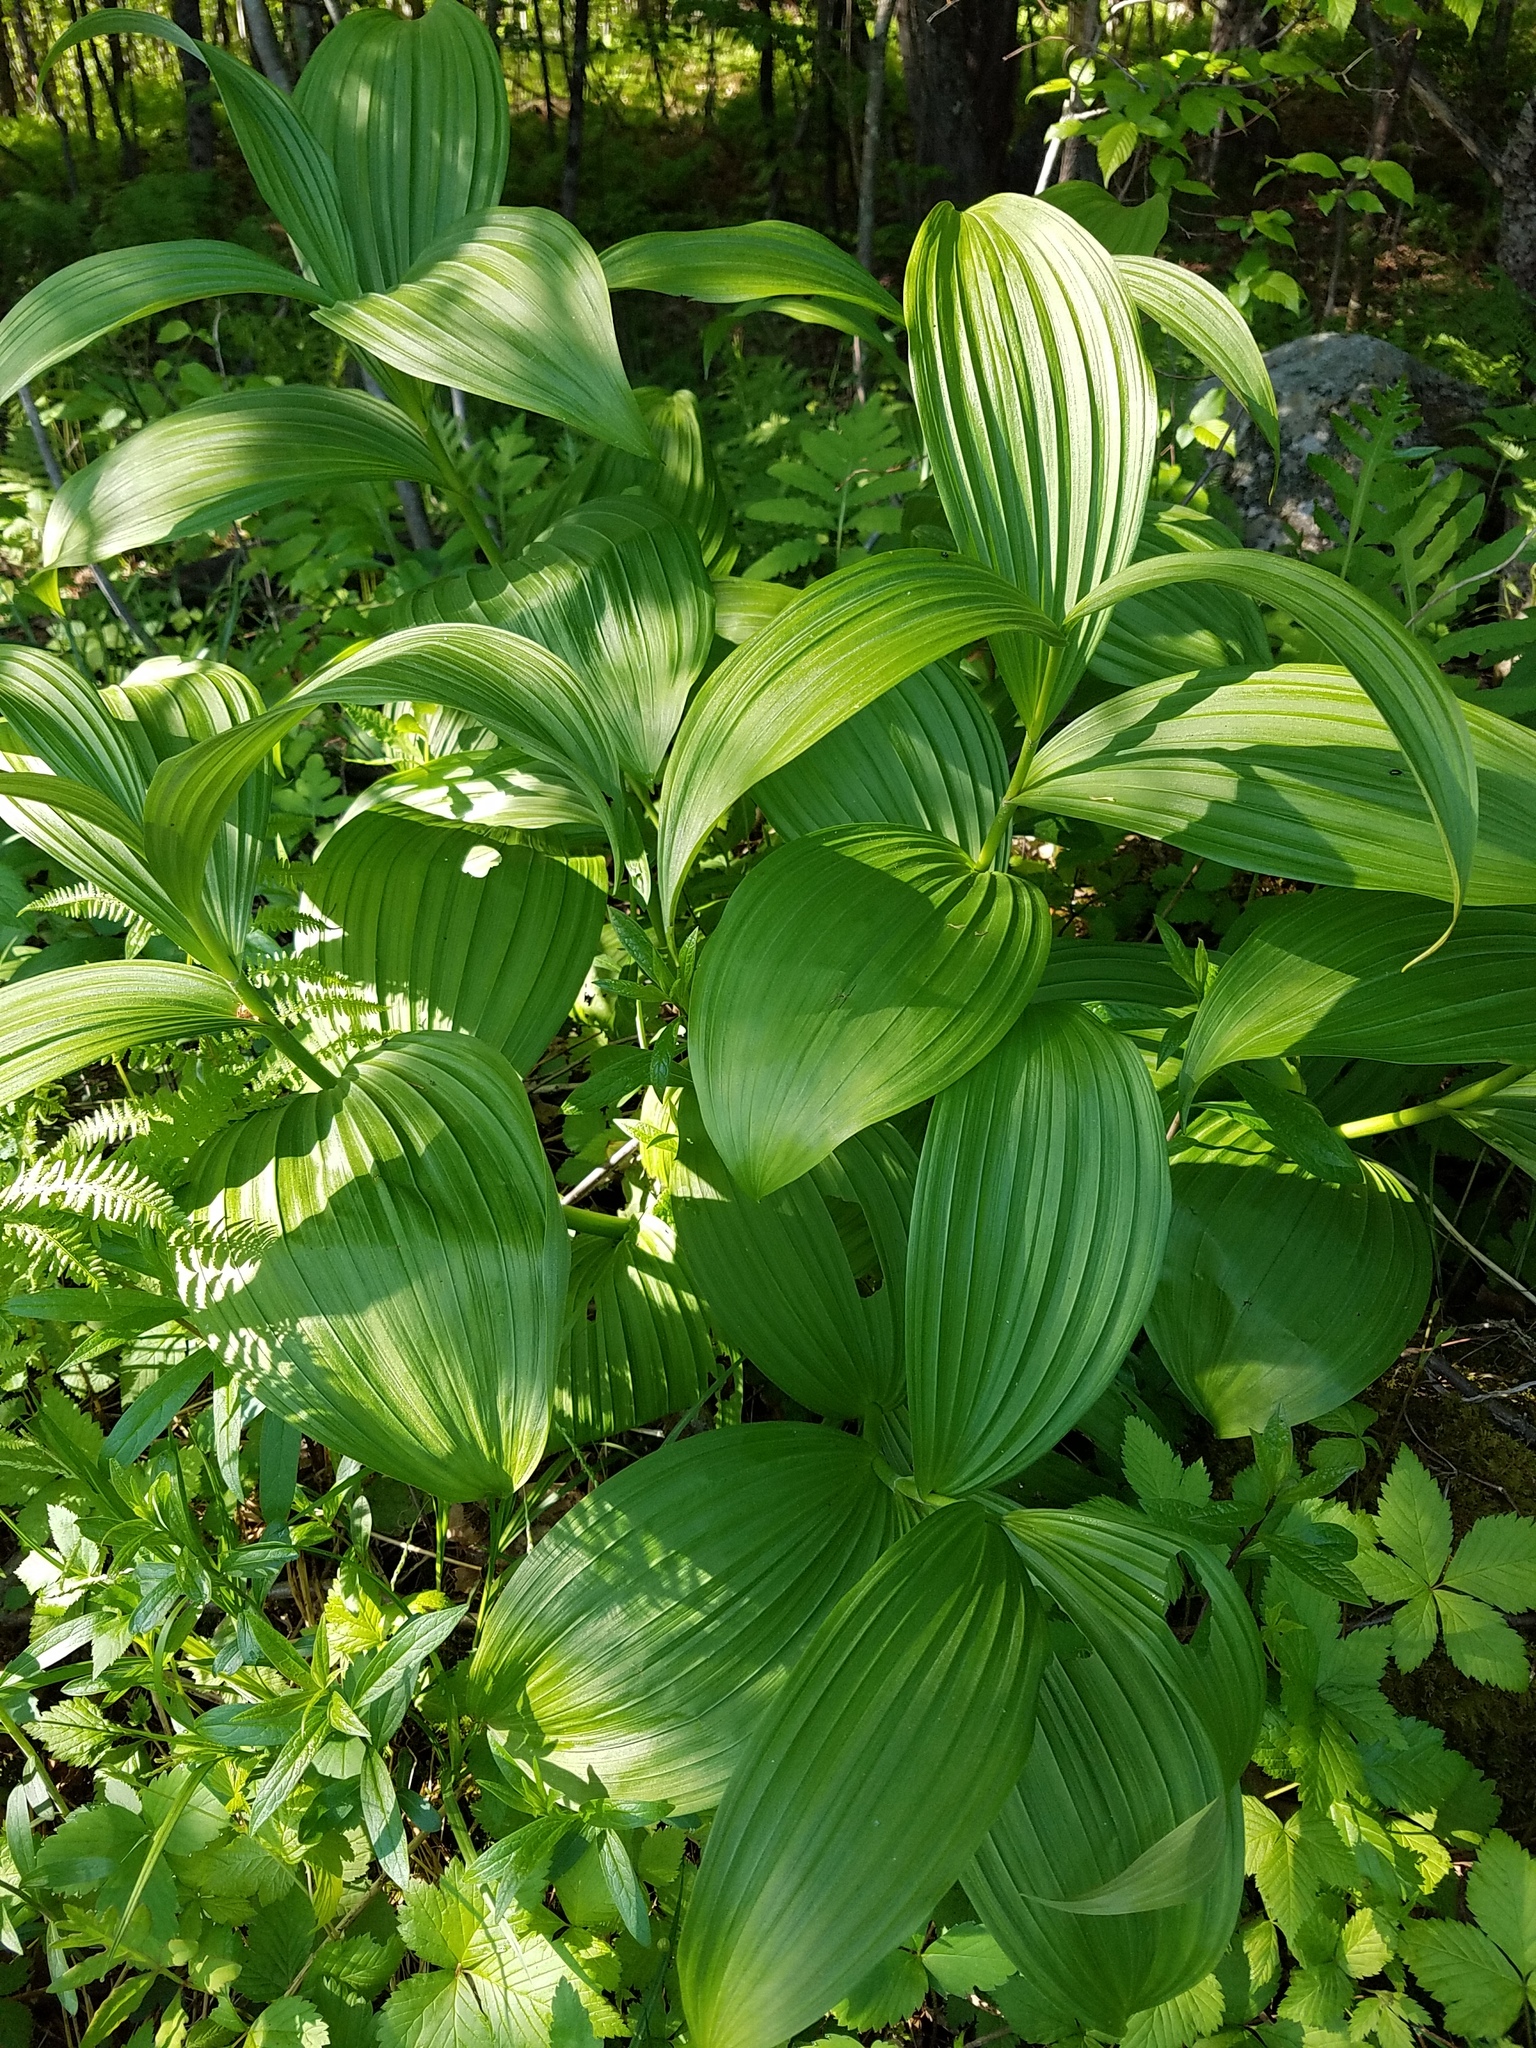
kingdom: Plantae
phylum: Tracheophyta
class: Liliopsida
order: Liliales
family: Melanthiaceae
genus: Veratrum
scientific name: Veratrum viride
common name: American false hellebore
